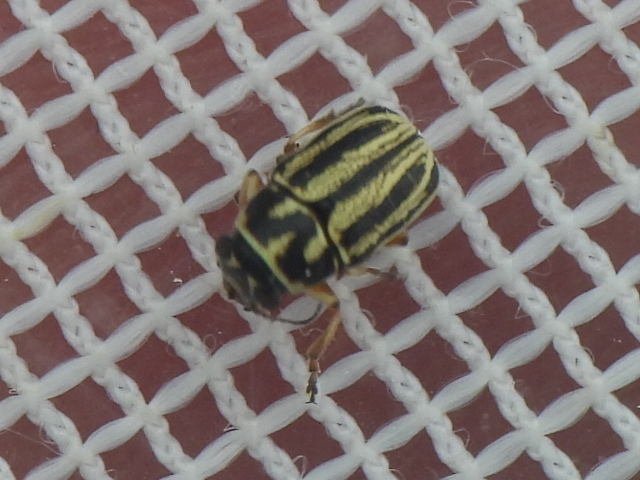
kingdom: Animalia
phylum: Arthropoda
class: Insecta
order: Coleoptera
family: Chrysomelidae
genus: Pachybrachis
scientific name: Pachybrachis nigricornis
